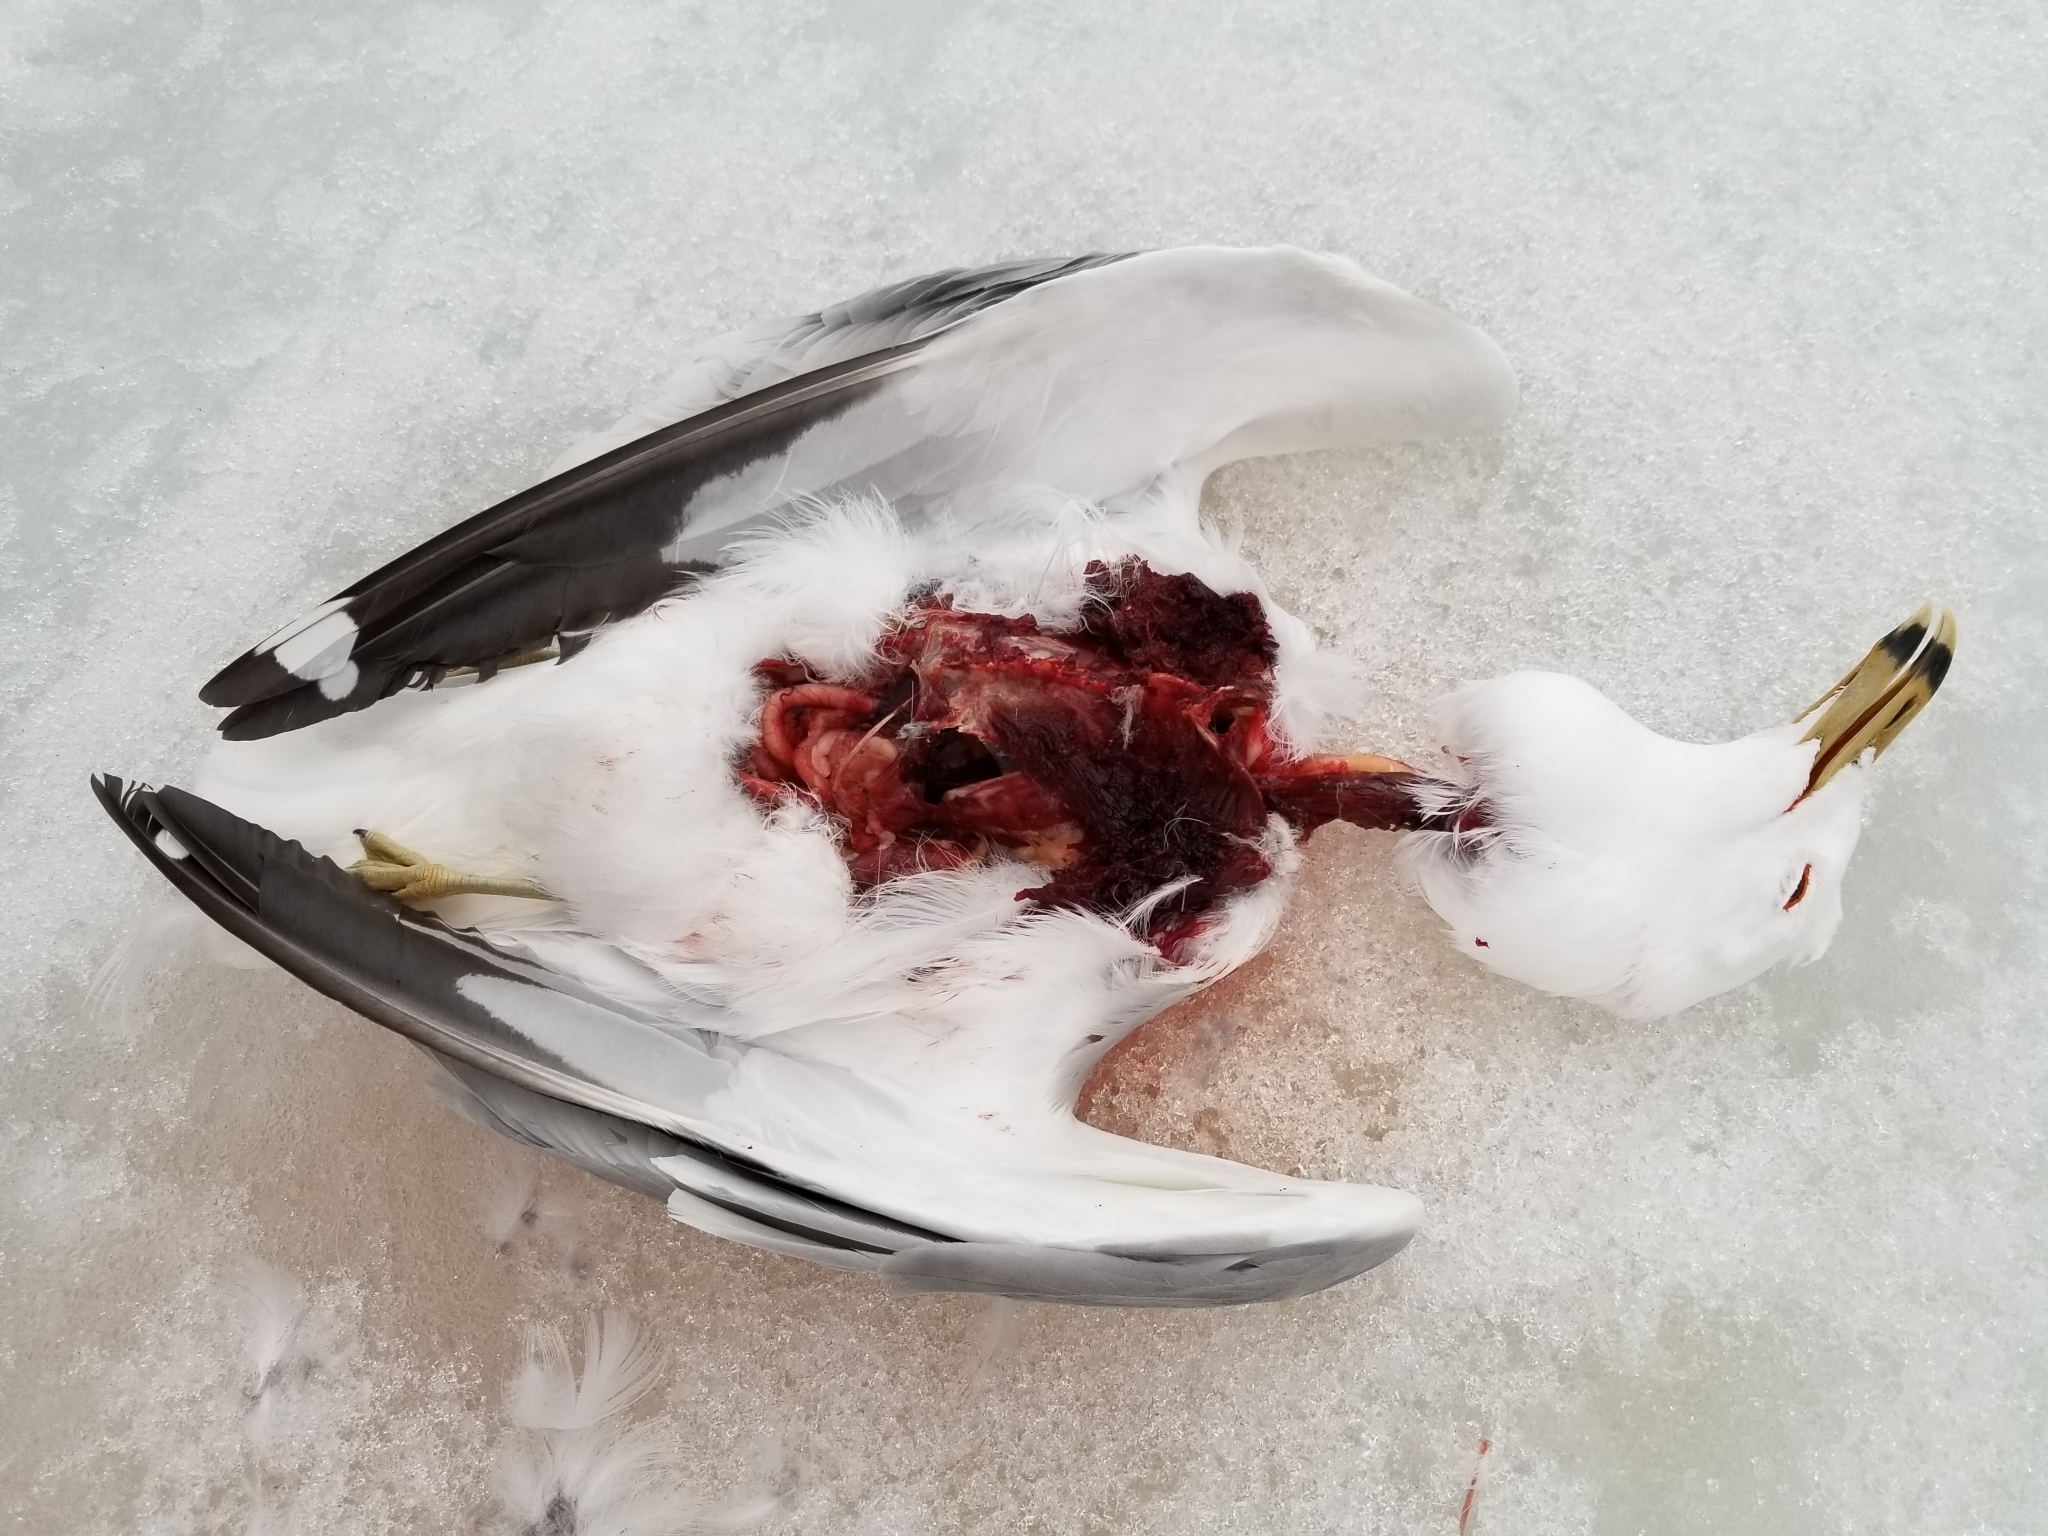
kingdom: Animalia
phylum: Chordata
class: Aves
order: Charadriiformes
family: Laridae
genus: Larus
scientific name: Larus delawarensis
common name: Ring-billed gull
